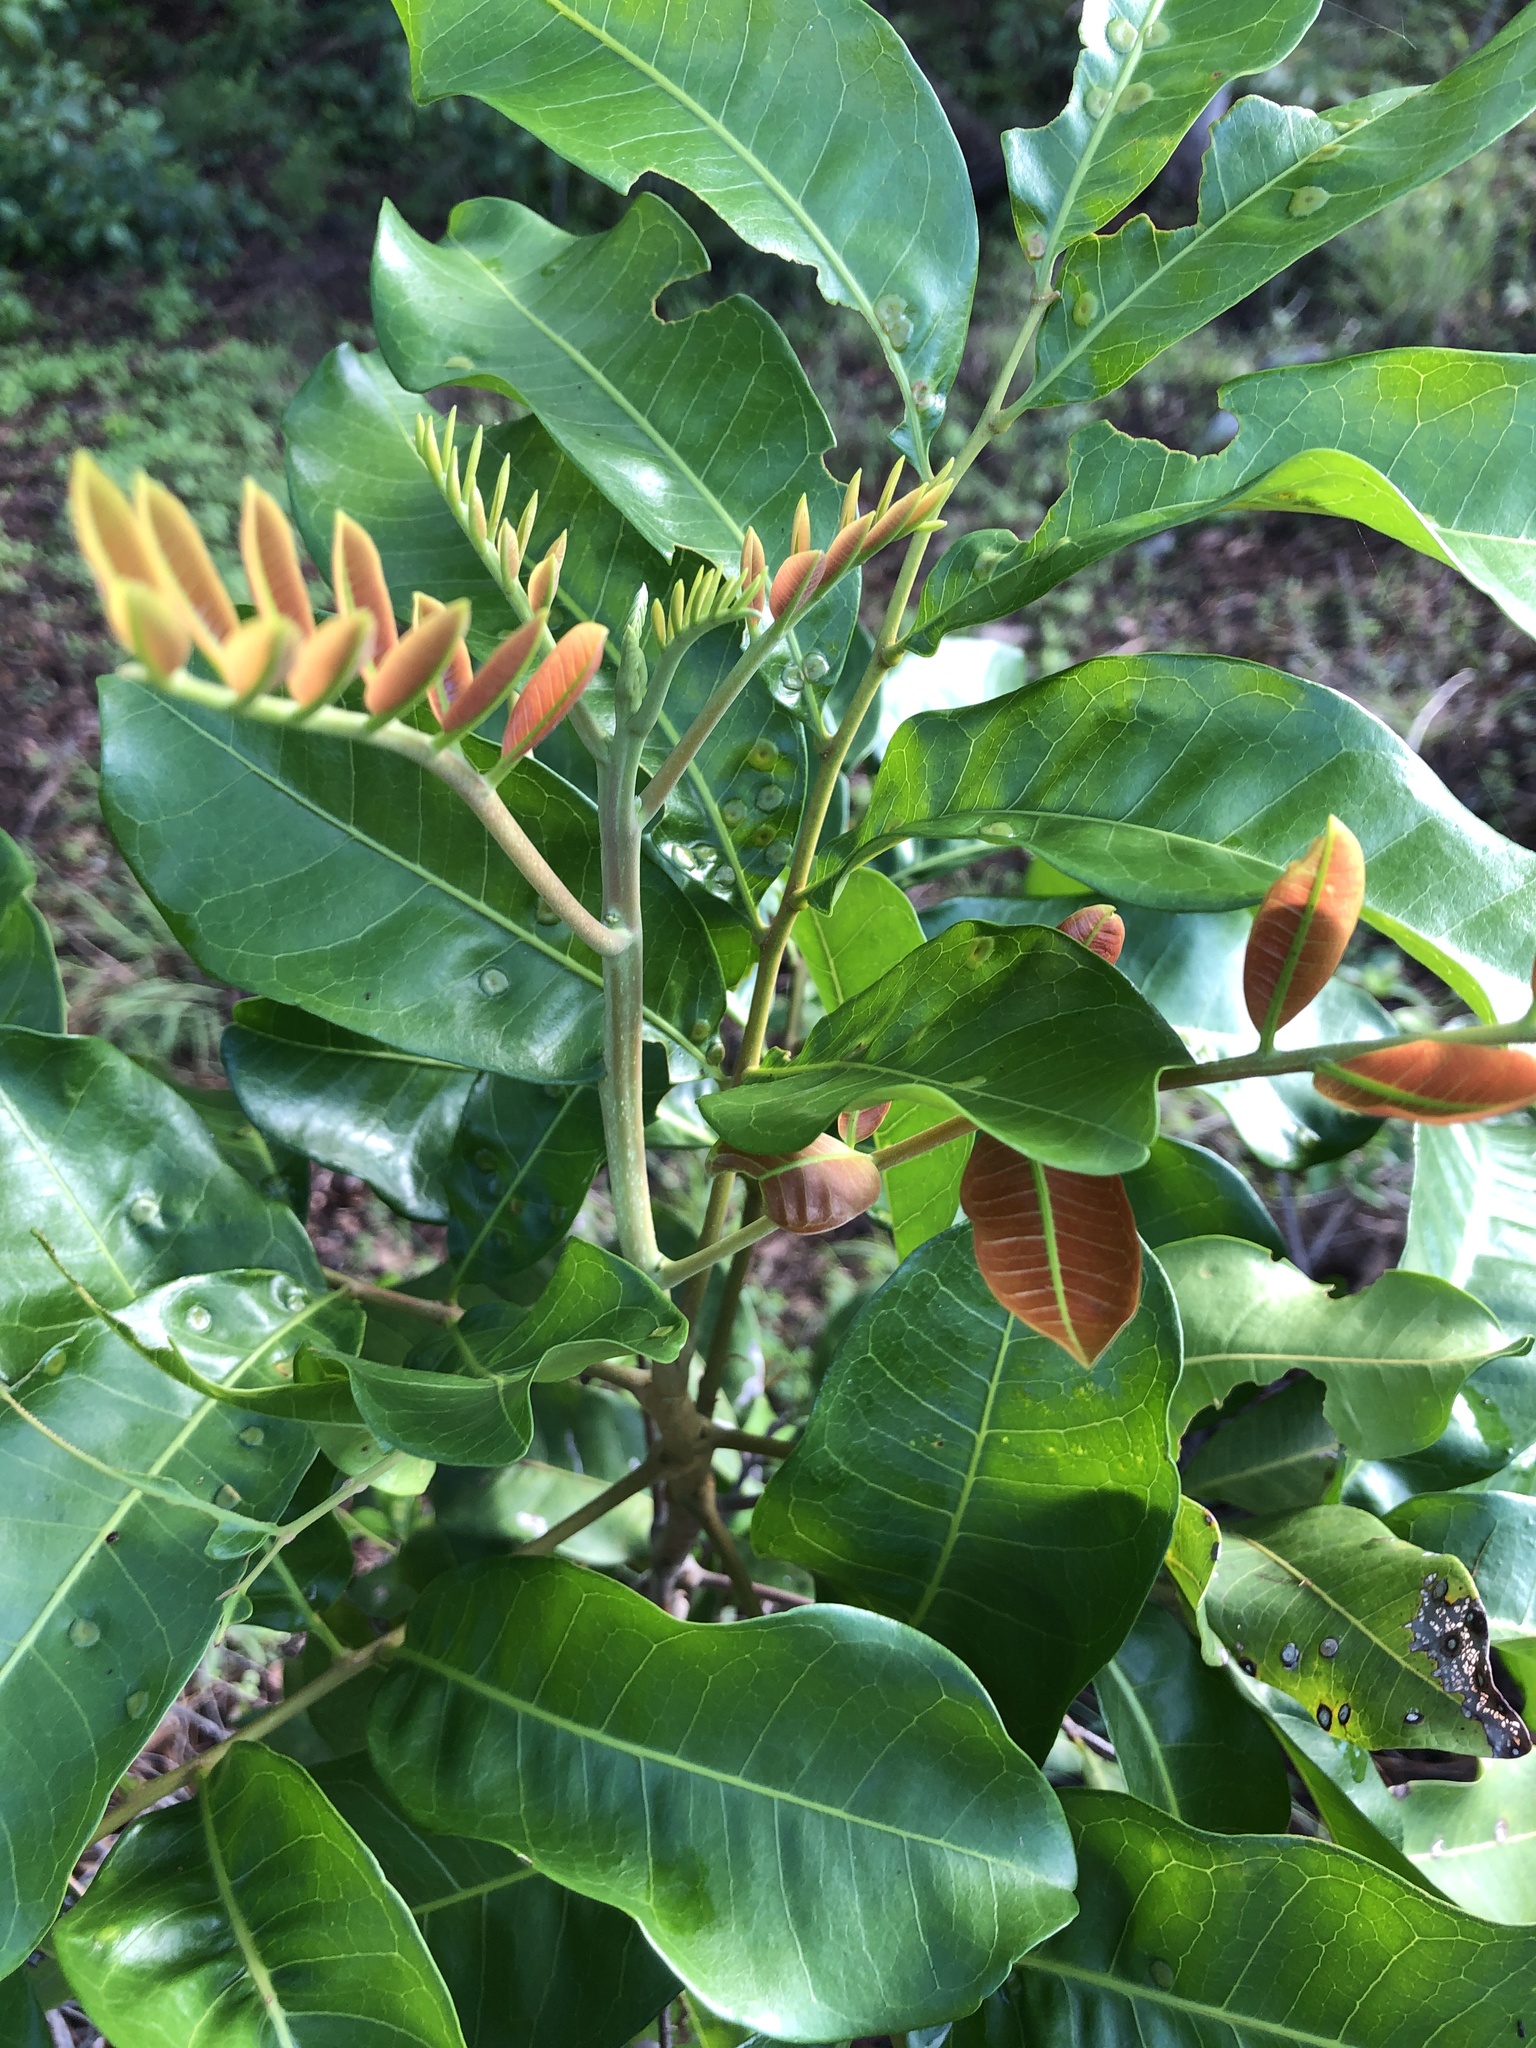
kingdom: Plantae
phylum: Tracheophyta
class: Magnoliopsida
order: Sapindales
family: Sapindaceae
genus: Cupaniopsis
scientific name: Cupaniopsis anacardioides
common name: Carrotwood
